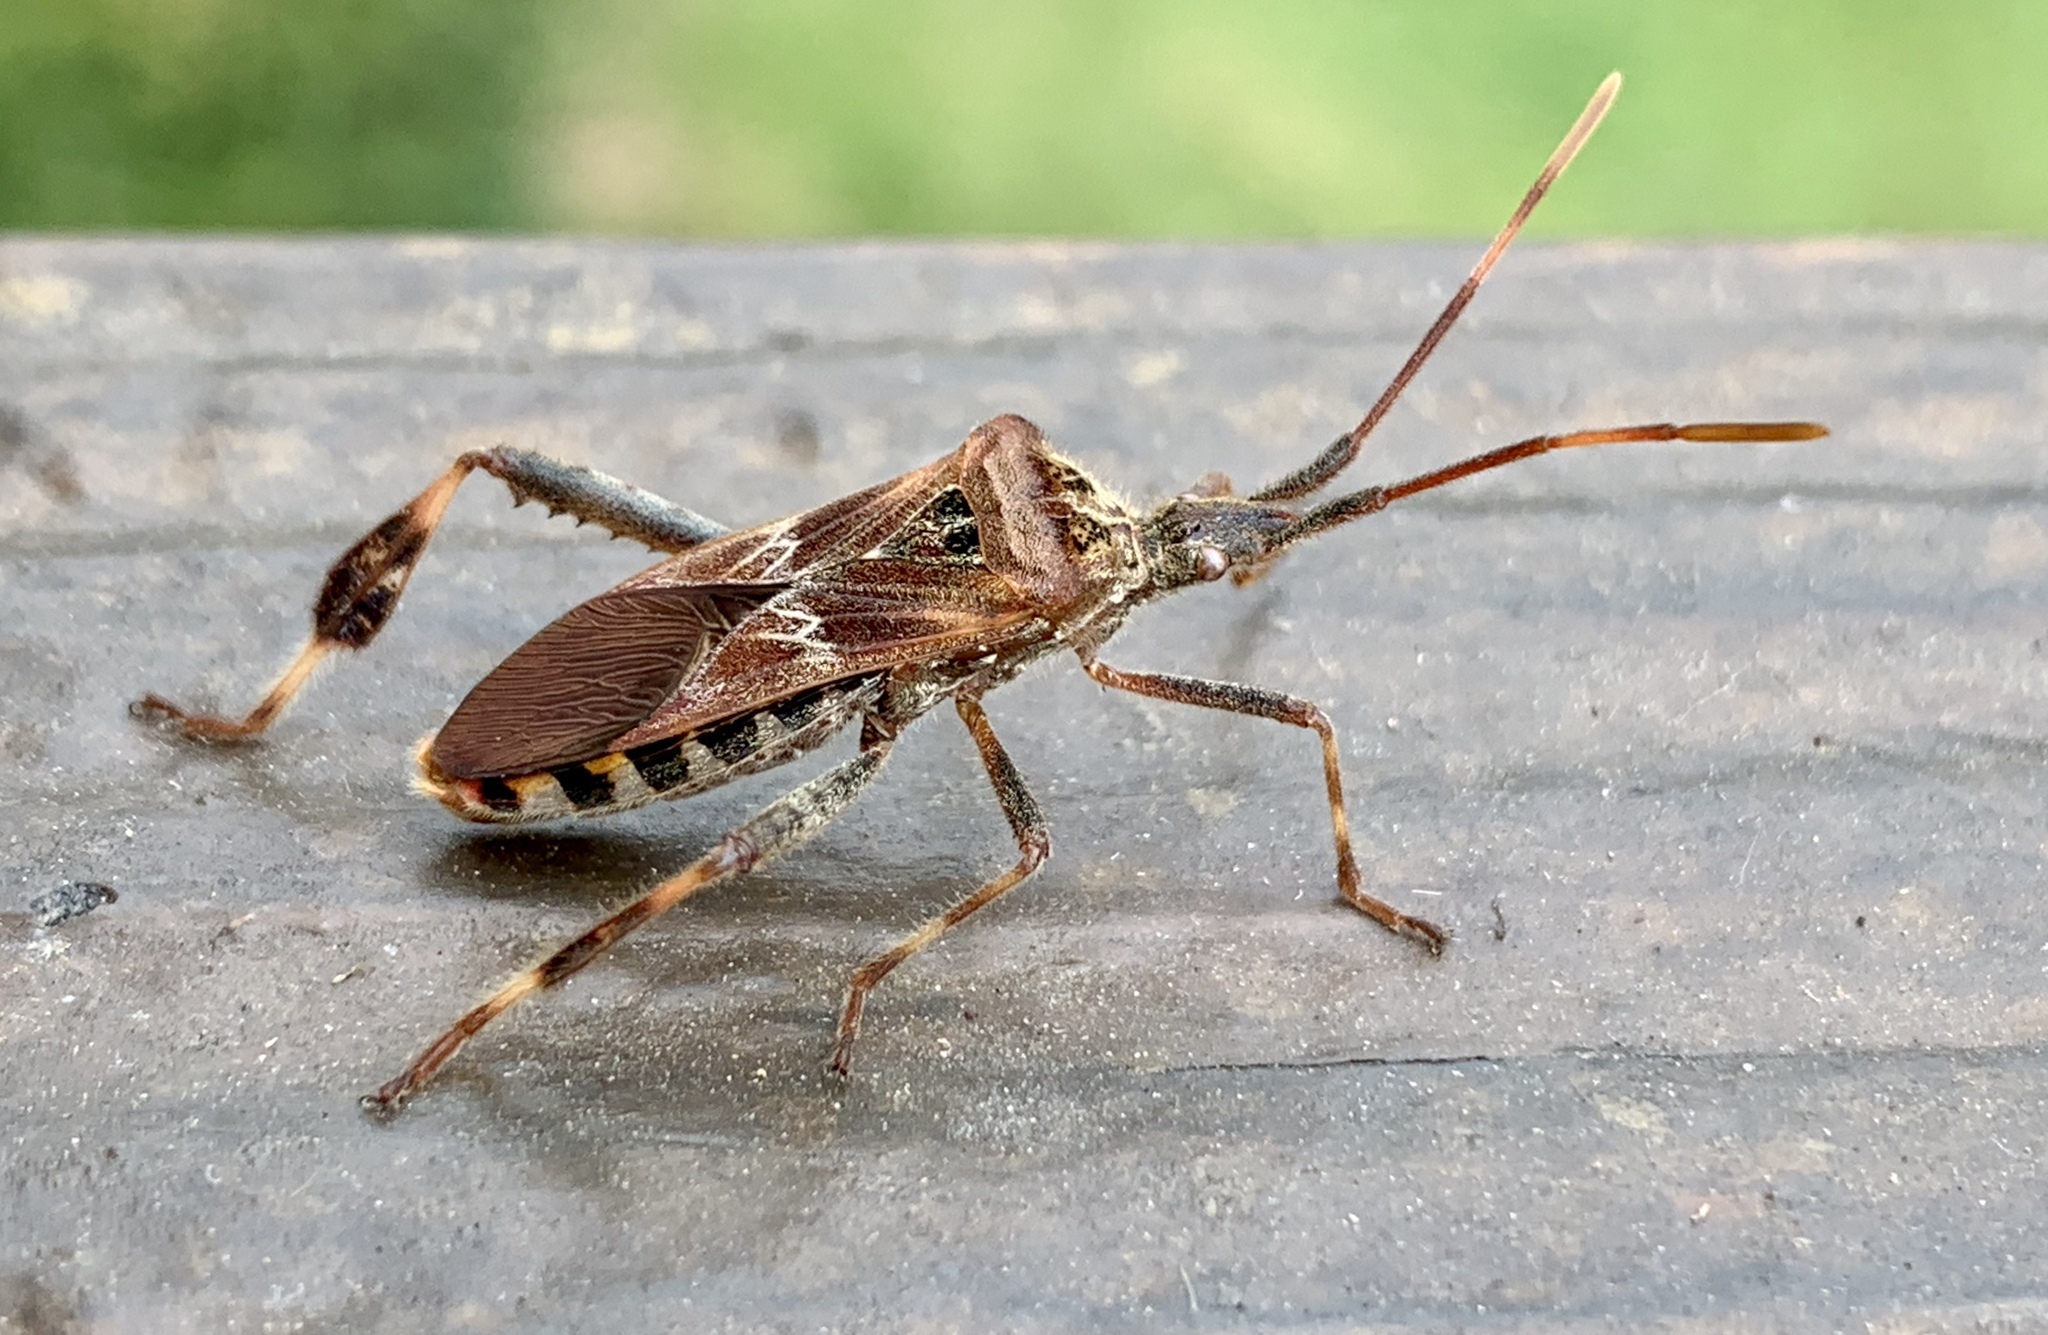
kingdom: Animalia
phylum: Arthropoda
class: Insecta
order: Hemiptera
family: Coreidae
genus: Leptoglossus
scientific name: Leptoglossus occidentalis
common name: Western conifer-seed bug
